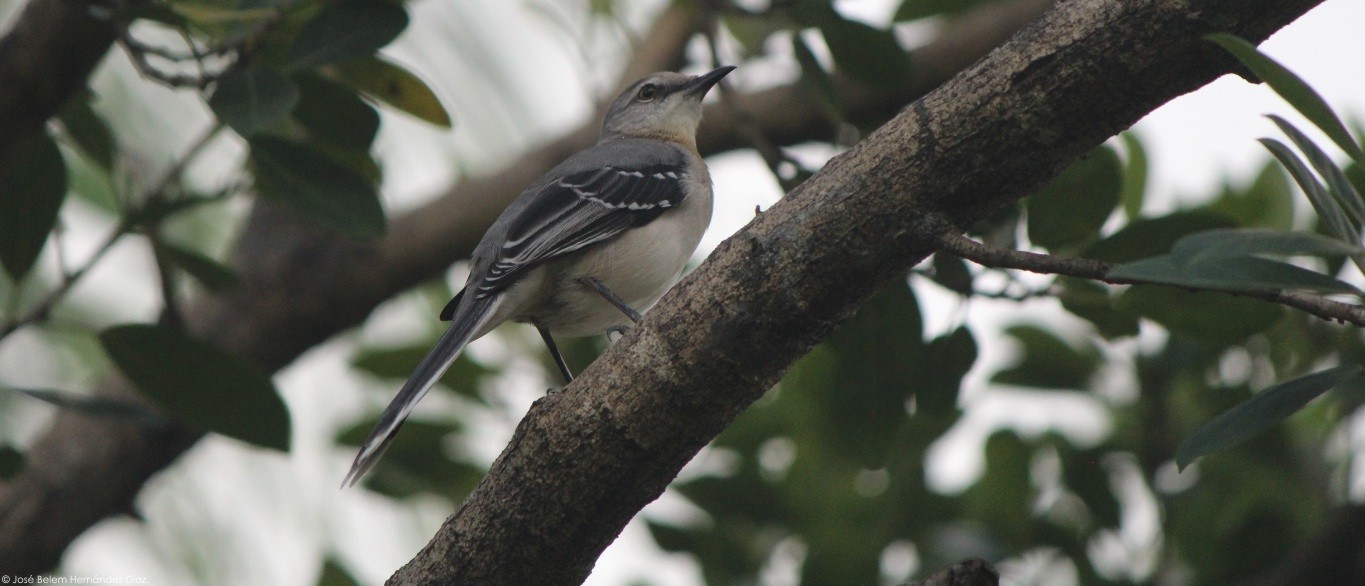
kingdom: Animalia
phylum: Chordata
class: Aves
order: Passeriformes
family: Mimidae
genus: Mimus
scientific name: Mimus gilvus
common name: Tropical mockingbird
